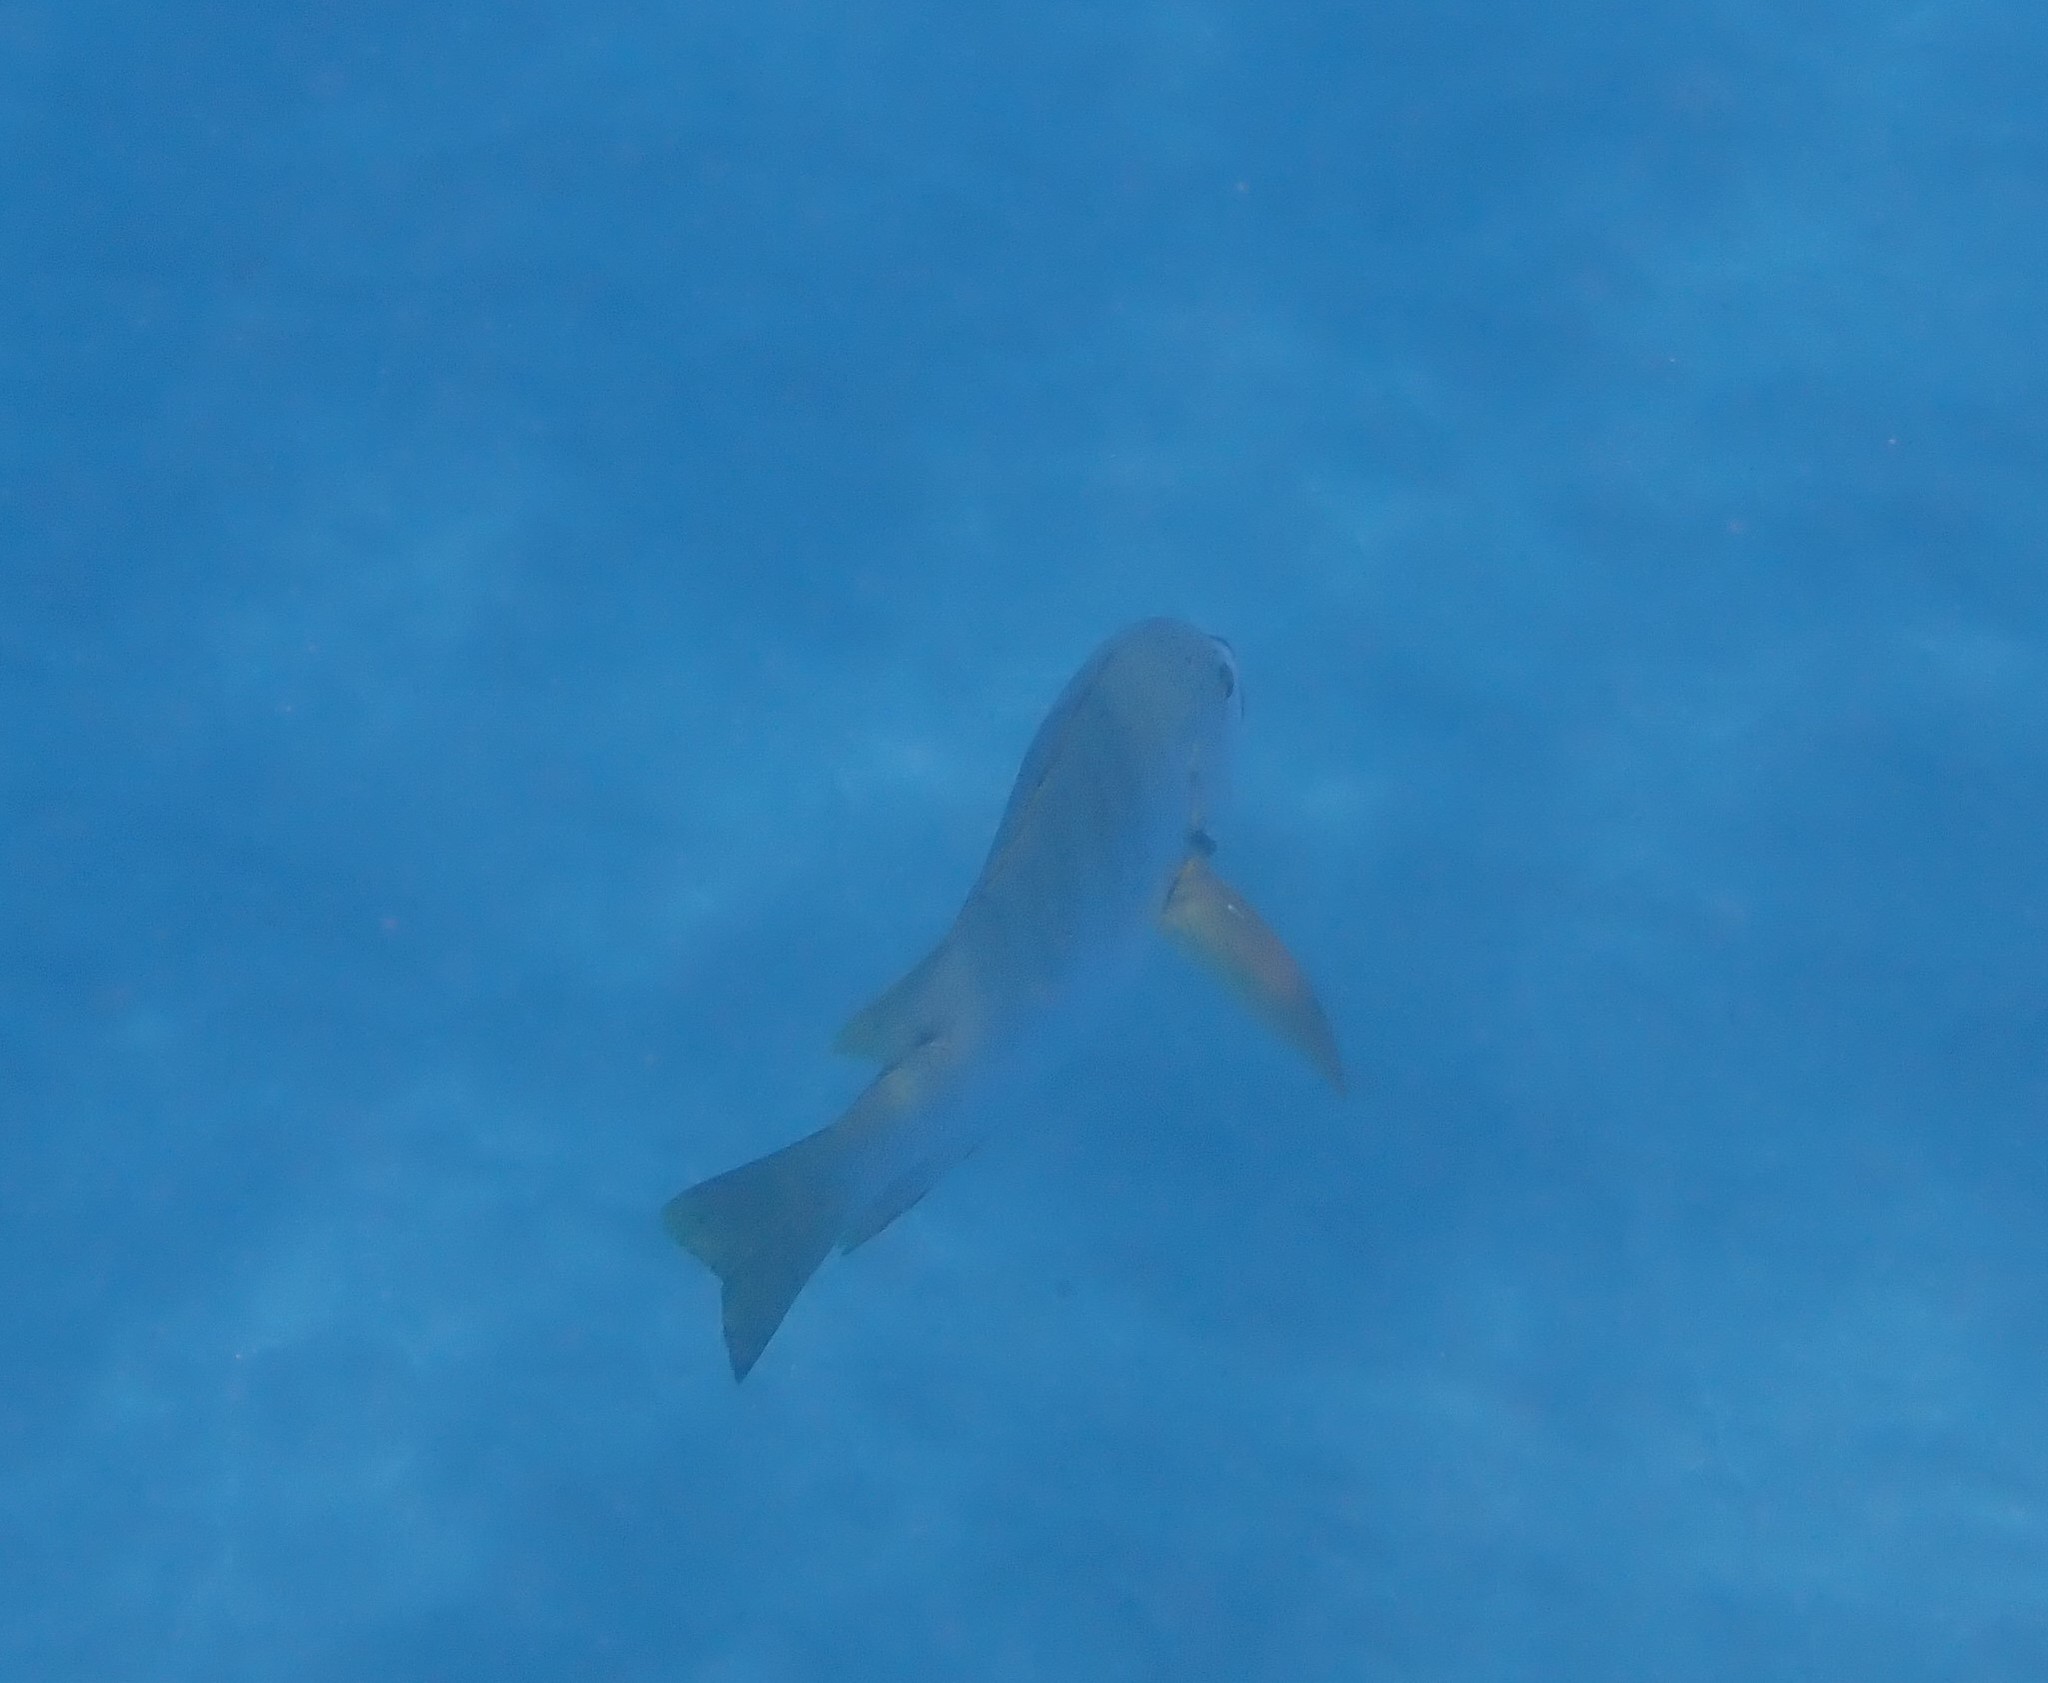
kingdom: Animalia
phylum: Chordata
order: Perciformes
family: Lutjanidae
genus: Hoplopagrus
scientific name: Hoplopagrus guentherii
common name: Barred pargo
